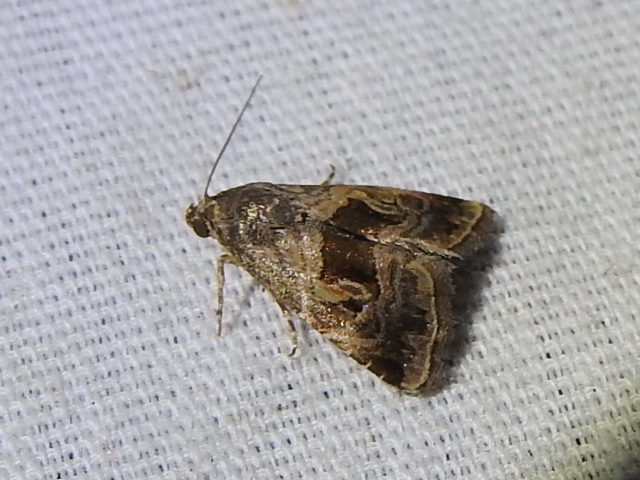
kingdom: Animalia
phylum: Arthropoda
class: Insecta
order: Lepidoptera
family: Noctuidae
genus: Tripudia
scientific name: Tripudia quadrifera
